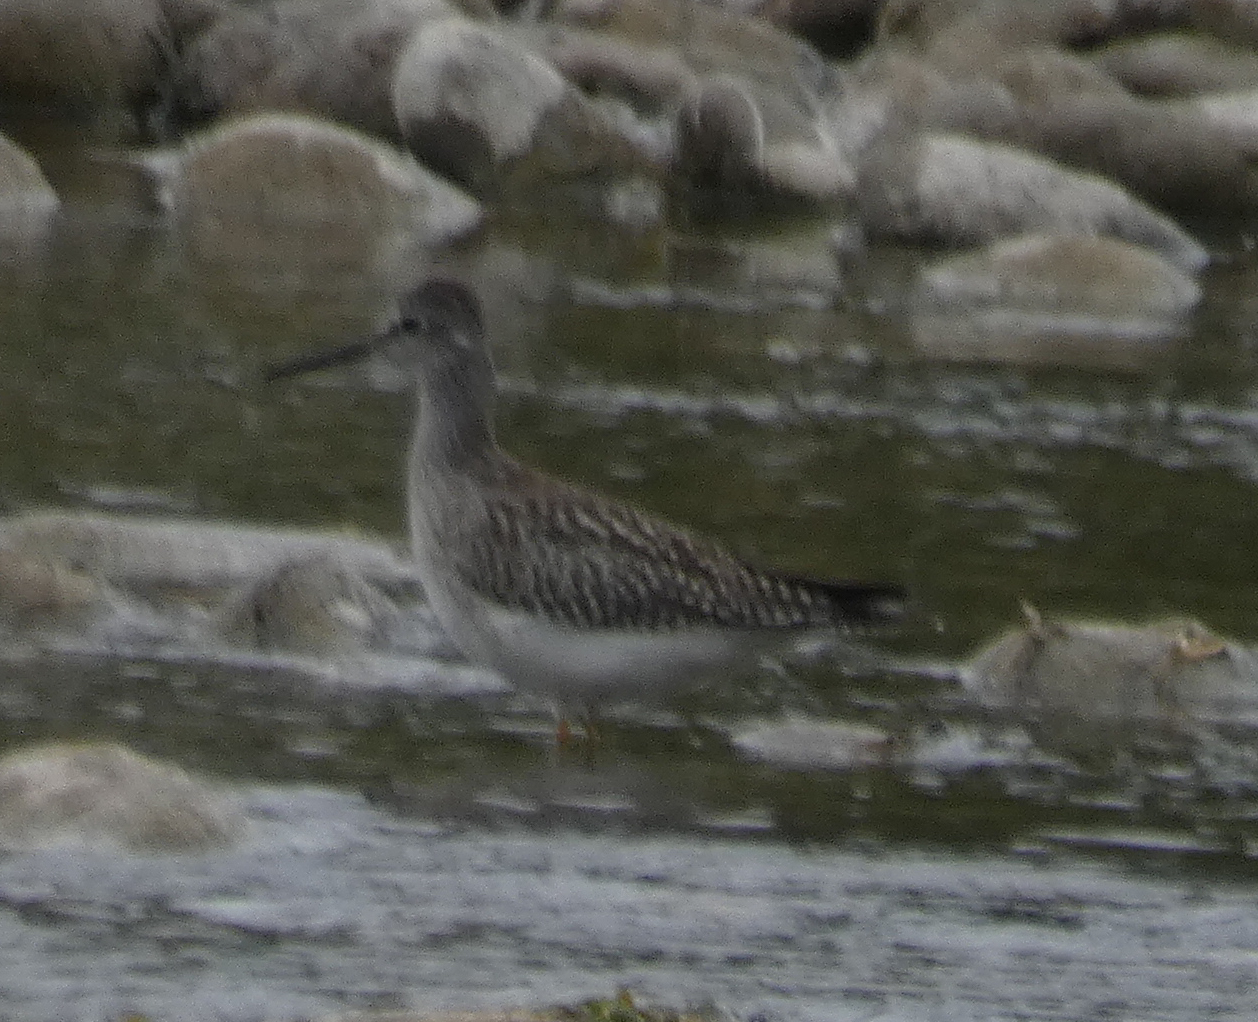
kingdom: Animalia
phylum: Chordata
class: Aves
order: Charadriiformes
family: Scolopacidae
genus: Tringa
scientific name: Tringa melanoleuca
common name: Greater yellowlegs
